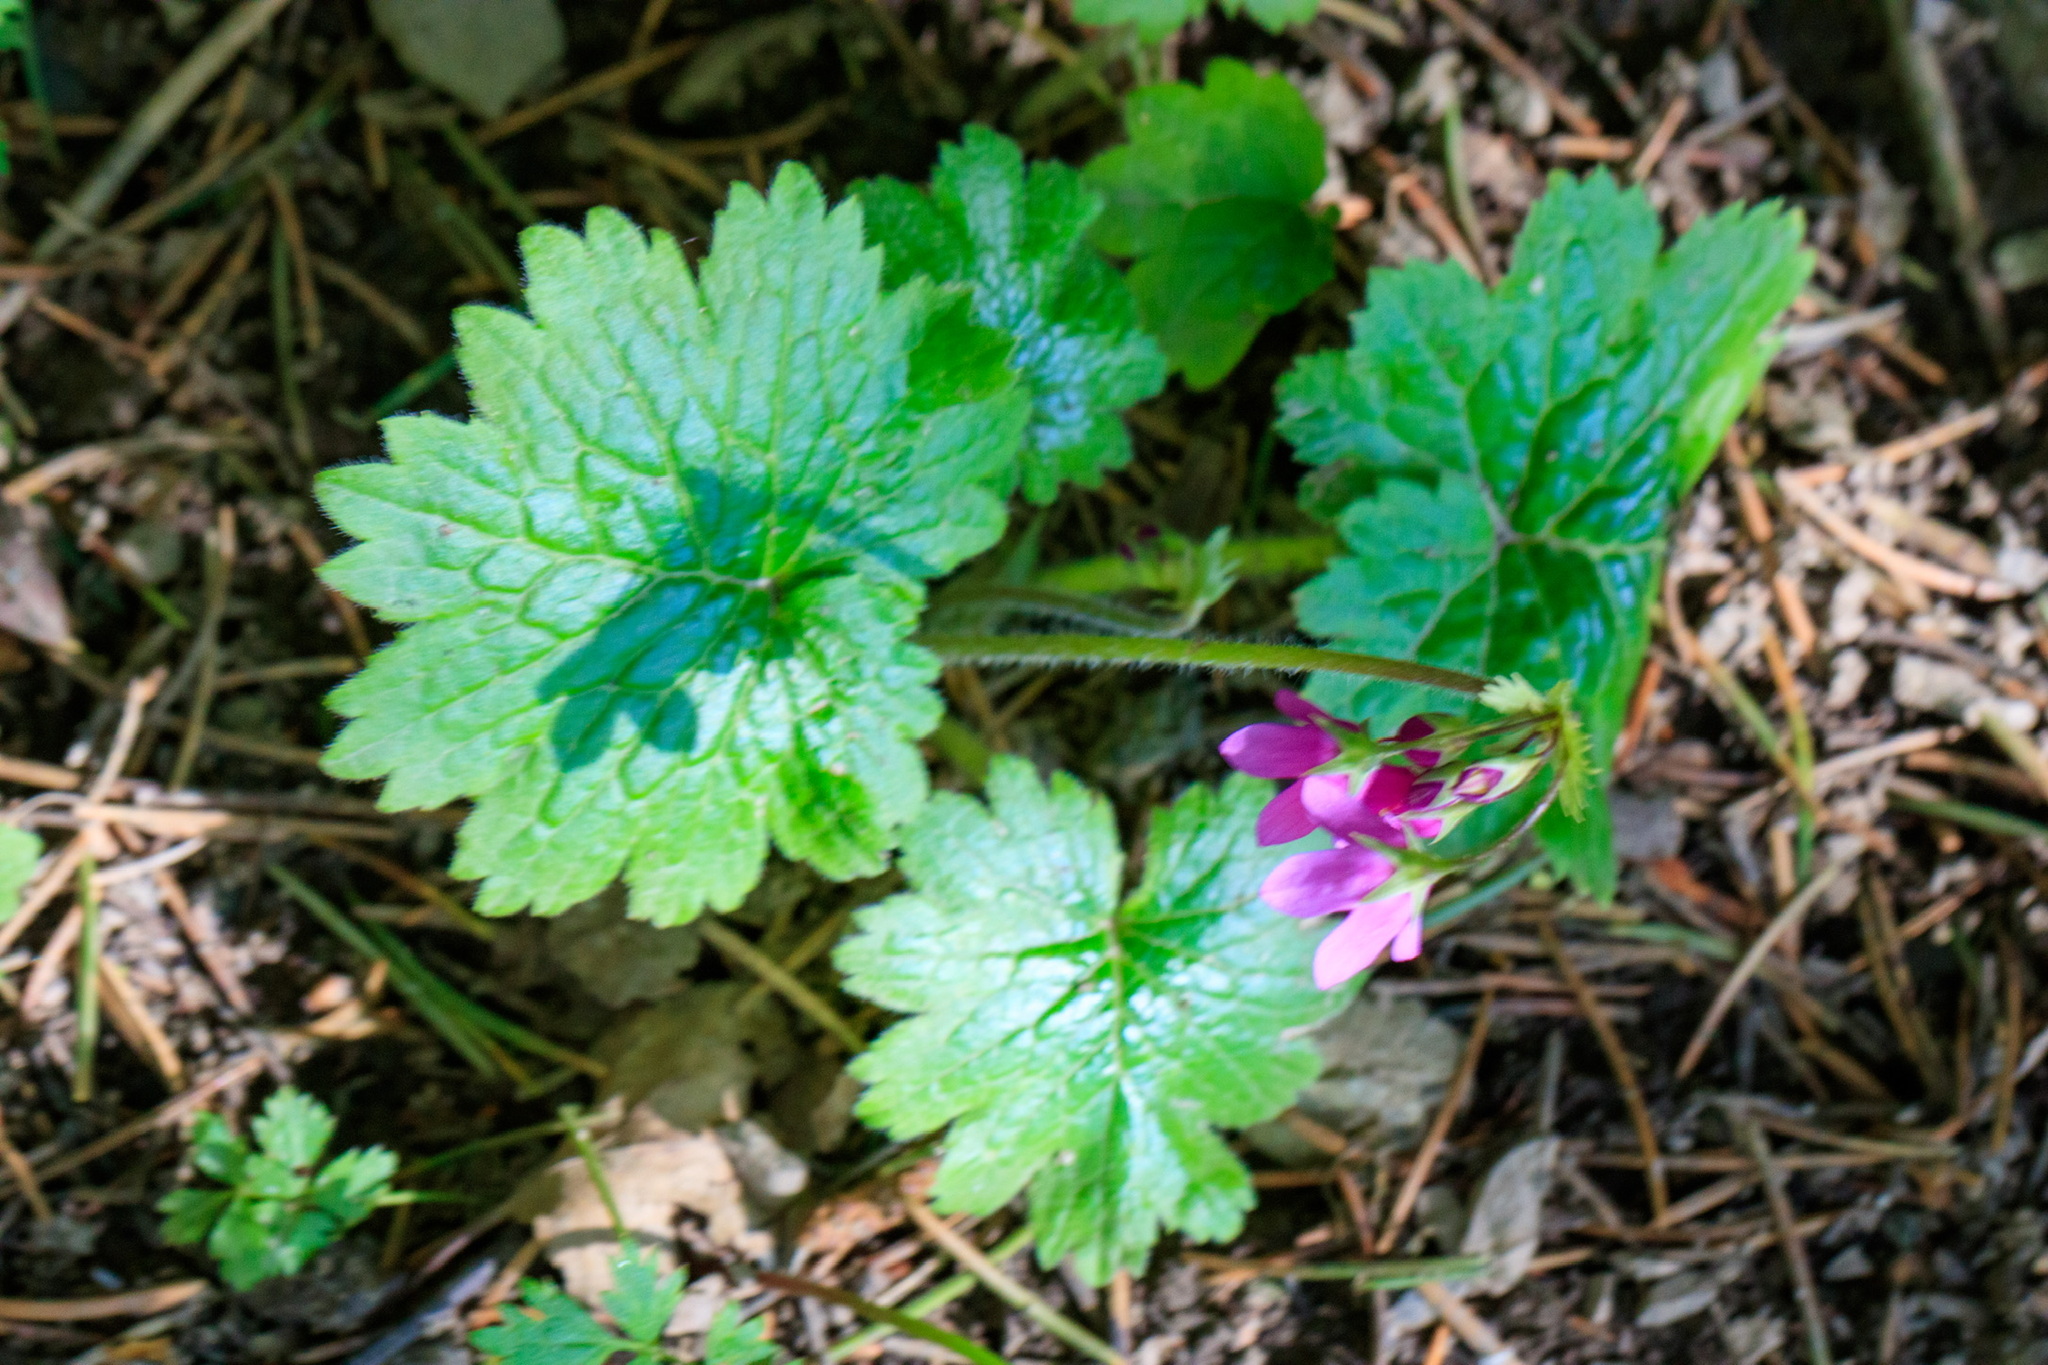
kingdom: Plantae
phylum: Tracheophyta
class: Magnoliopsida
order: Ericales
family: Primulaceae
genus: Primula
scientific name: Primula matthioli
